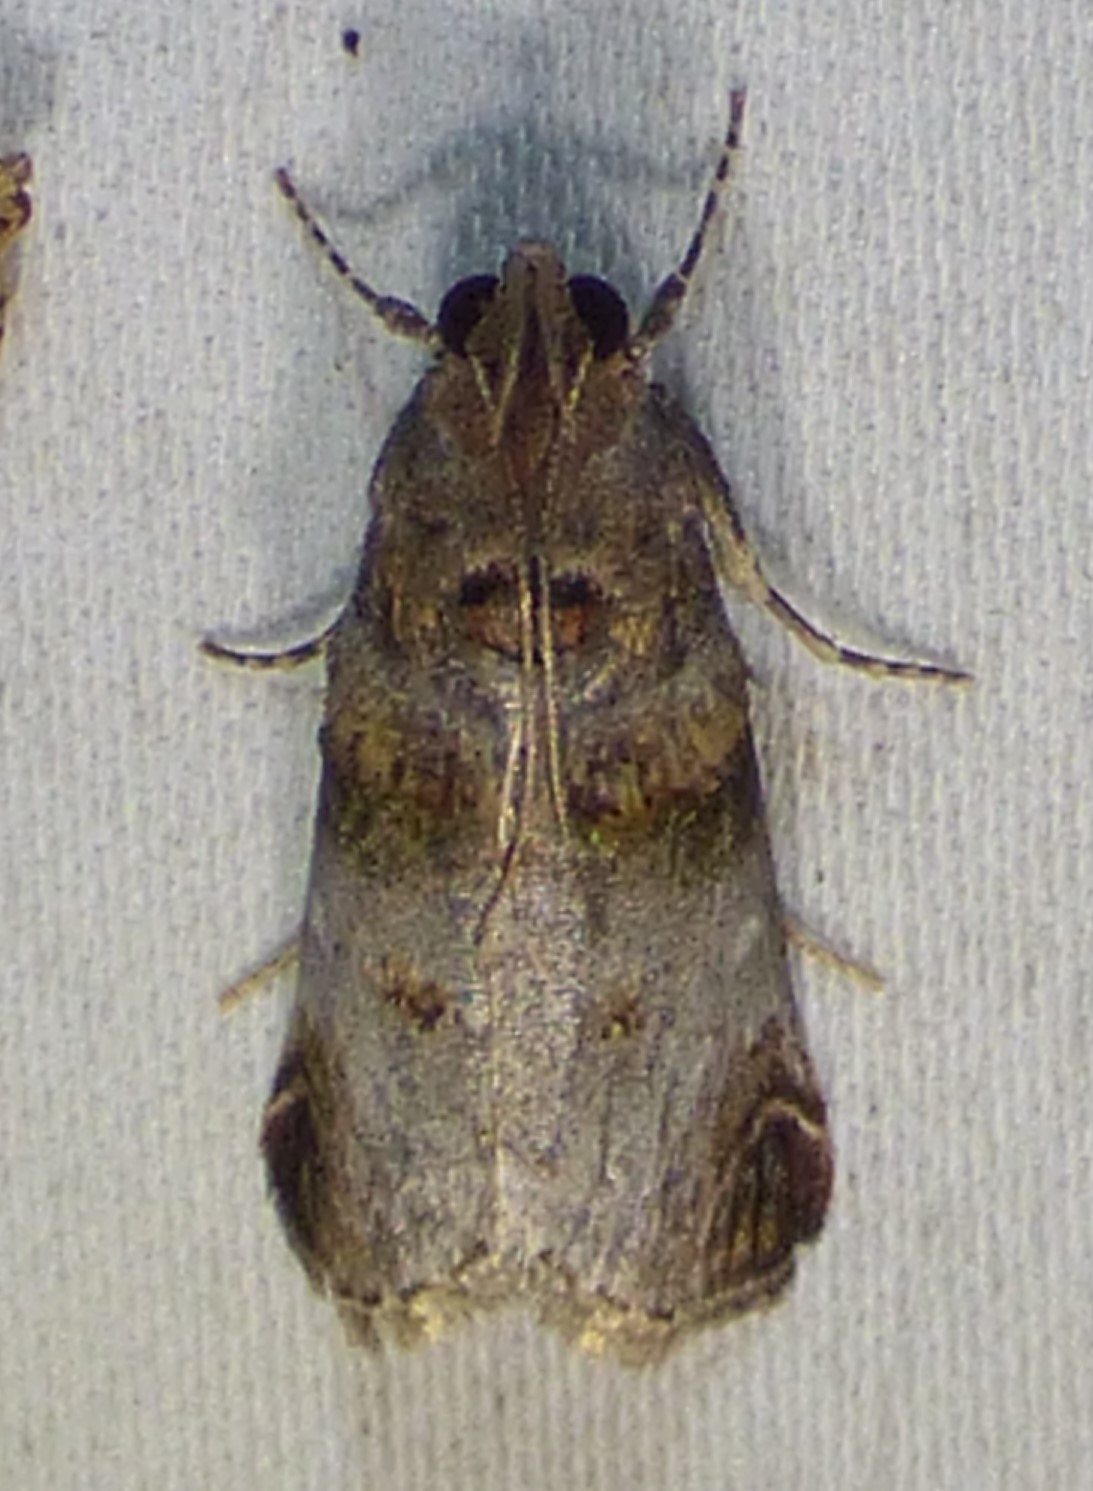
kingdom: Animalia
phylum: Arthropoda
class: Insecta
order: Lepidoptera
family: Pyralidae
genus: Oneida
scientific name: Oneida lunulalis
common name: Orange-tufted oneida moth
